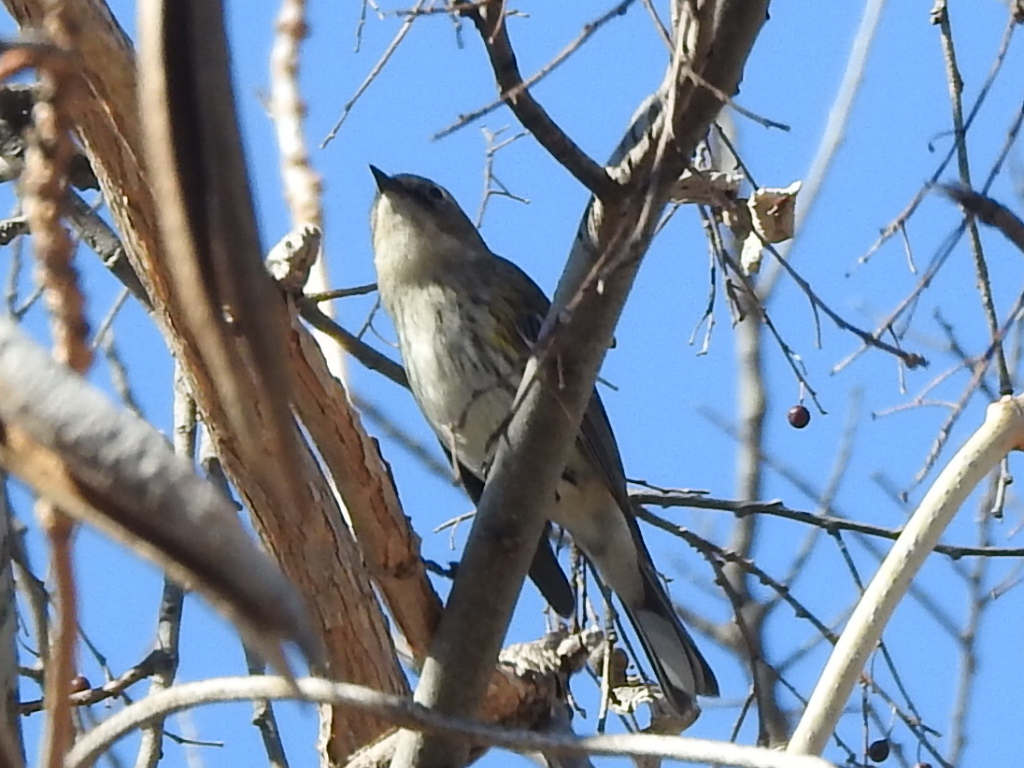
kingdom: Animalia
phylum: Chordata
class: Aves
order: Passeriformes
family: Parulidae
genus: Setophaga
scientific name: Setophaga coronata
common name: Myrtle warbler
